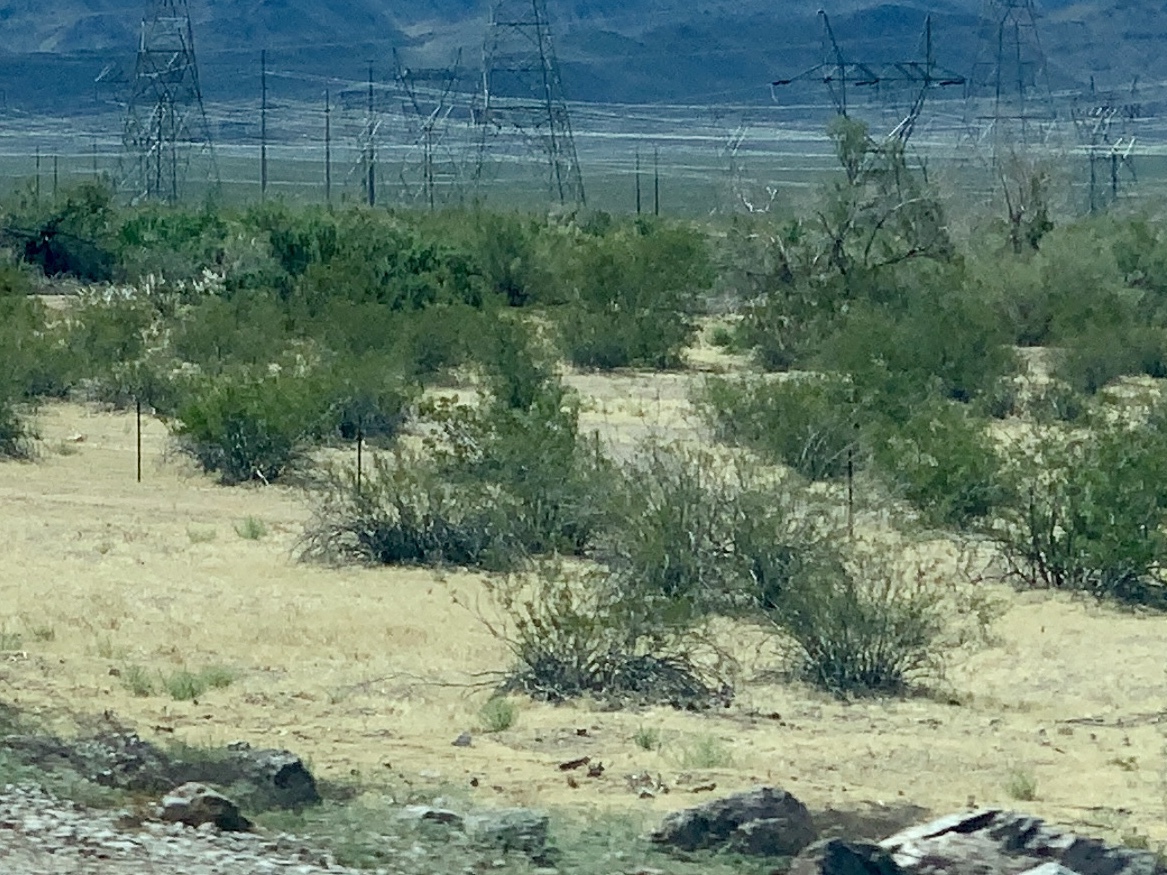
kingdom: Plantae
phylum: Tracheophyta
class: Magnoliopsida
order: Zygophyllales
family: Zygophyllaceae
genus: Larrea
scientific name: Larrea tridentata
